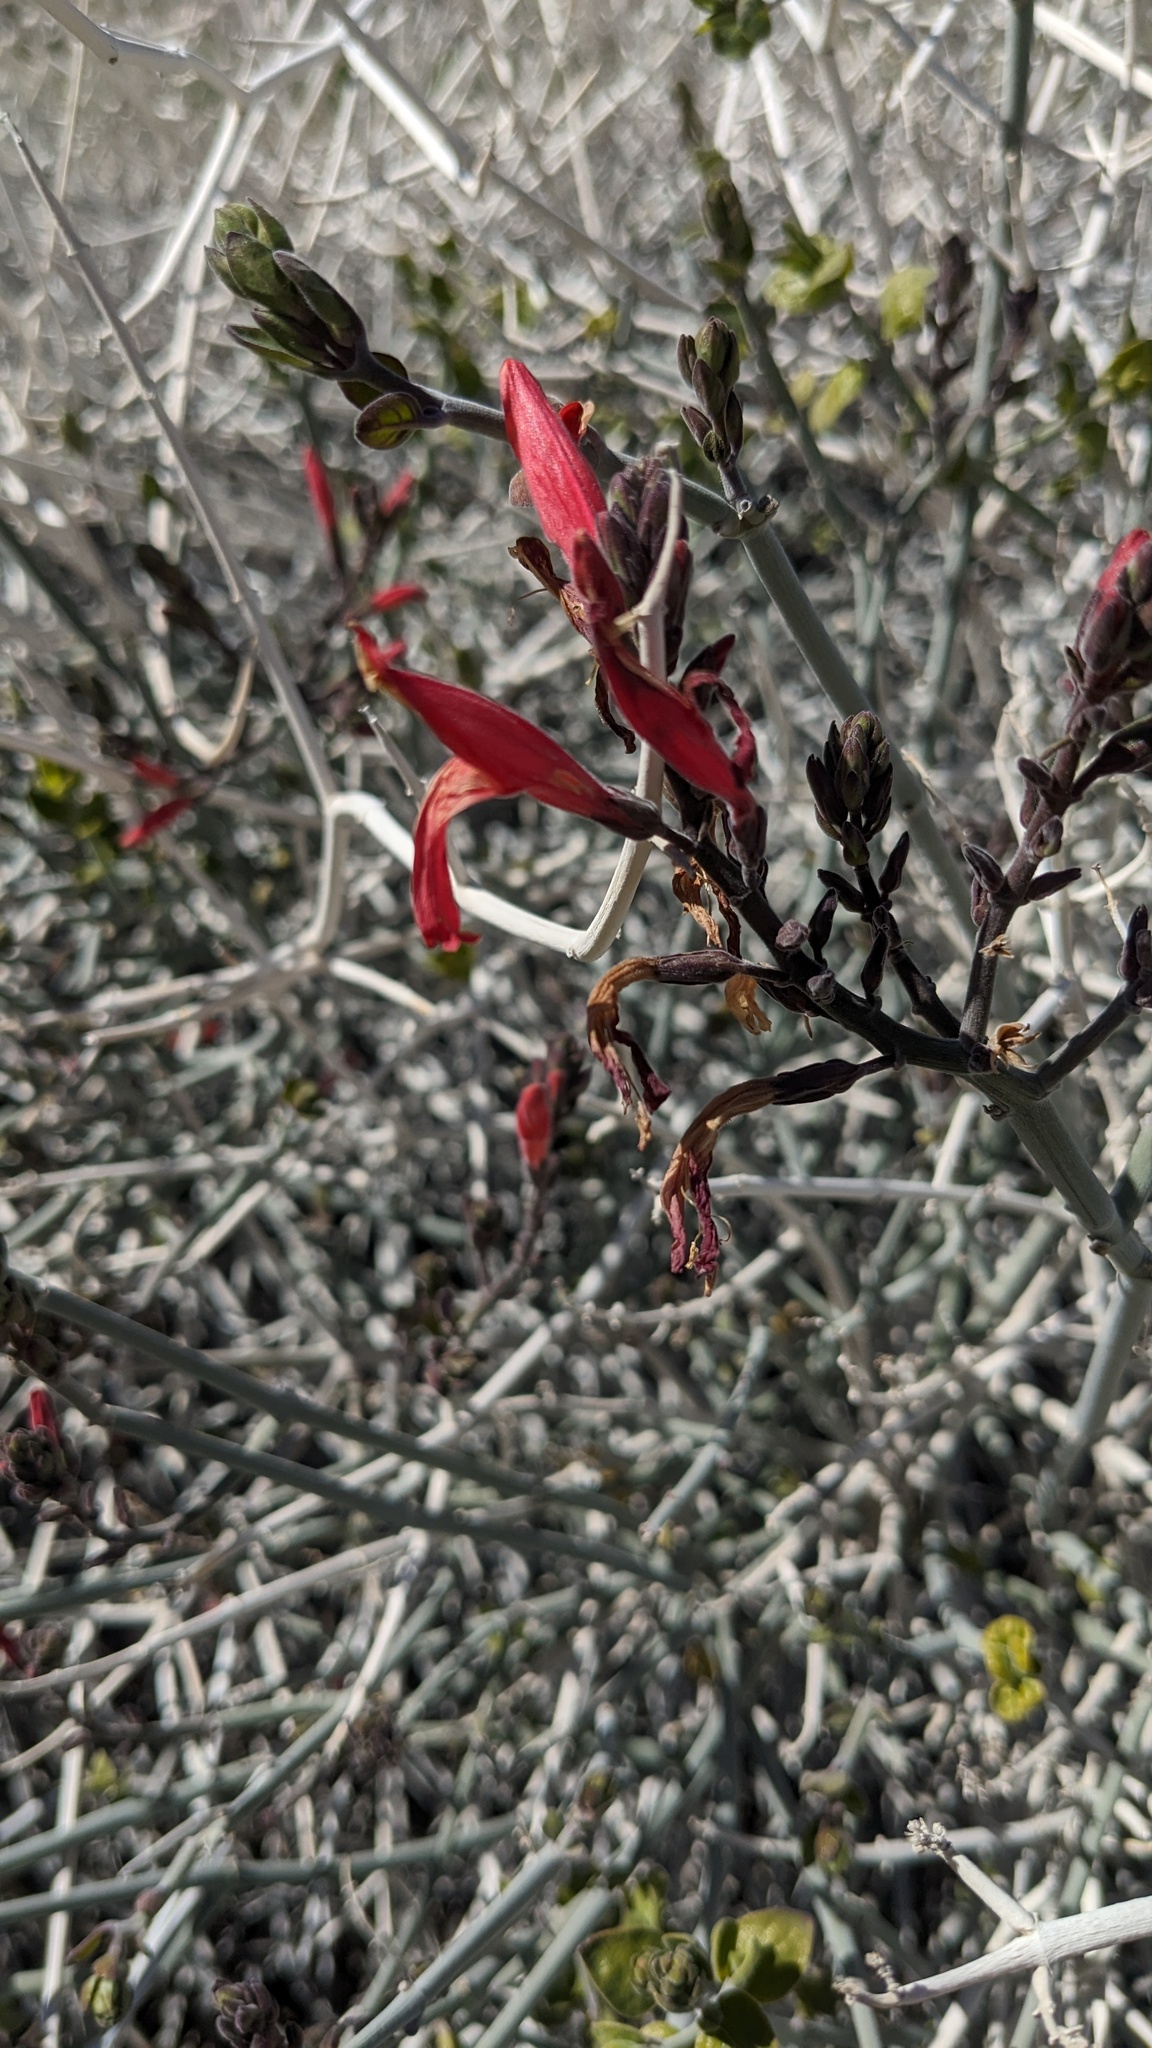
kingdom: Plantae
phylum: Tracheophyta
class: Magnoliopsida
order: Lamiales
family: Acanthaceae
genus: Justicia
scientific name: Justicia californica
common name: Chuparosa-honeysuckle
